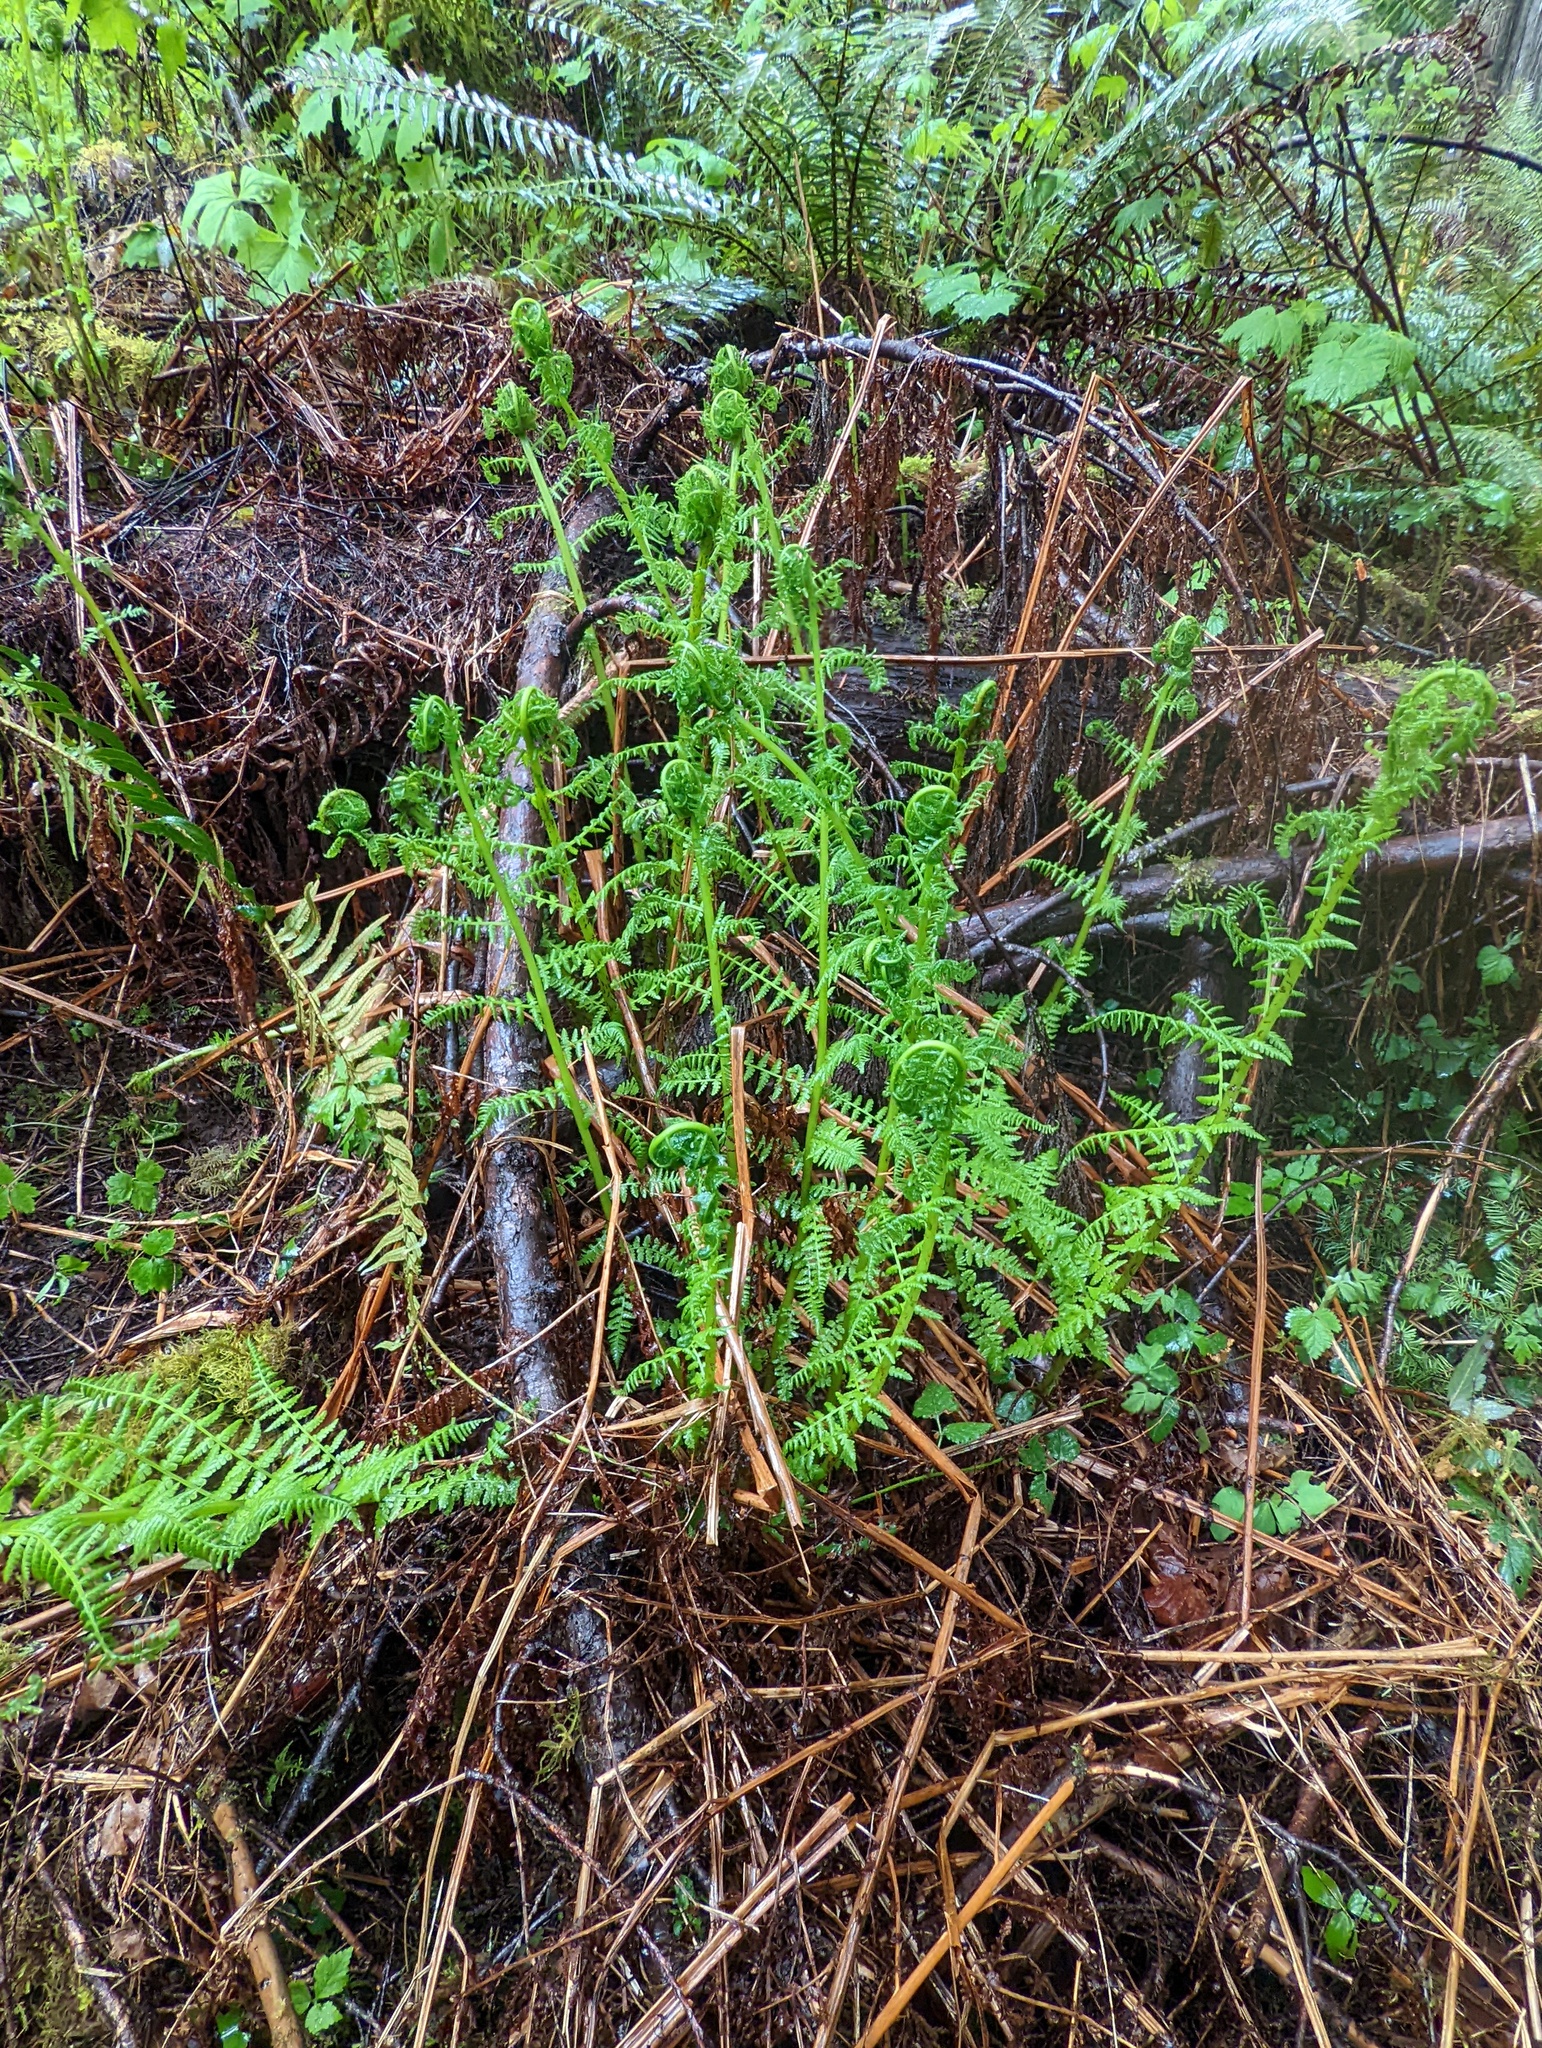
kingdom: Plantae
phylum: Tracheophyta
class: Polypodiopsida
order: Polypodiales
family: Athyriaceae
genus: Athyrium
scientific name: Athyrium filix-femina
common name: Lady fern
